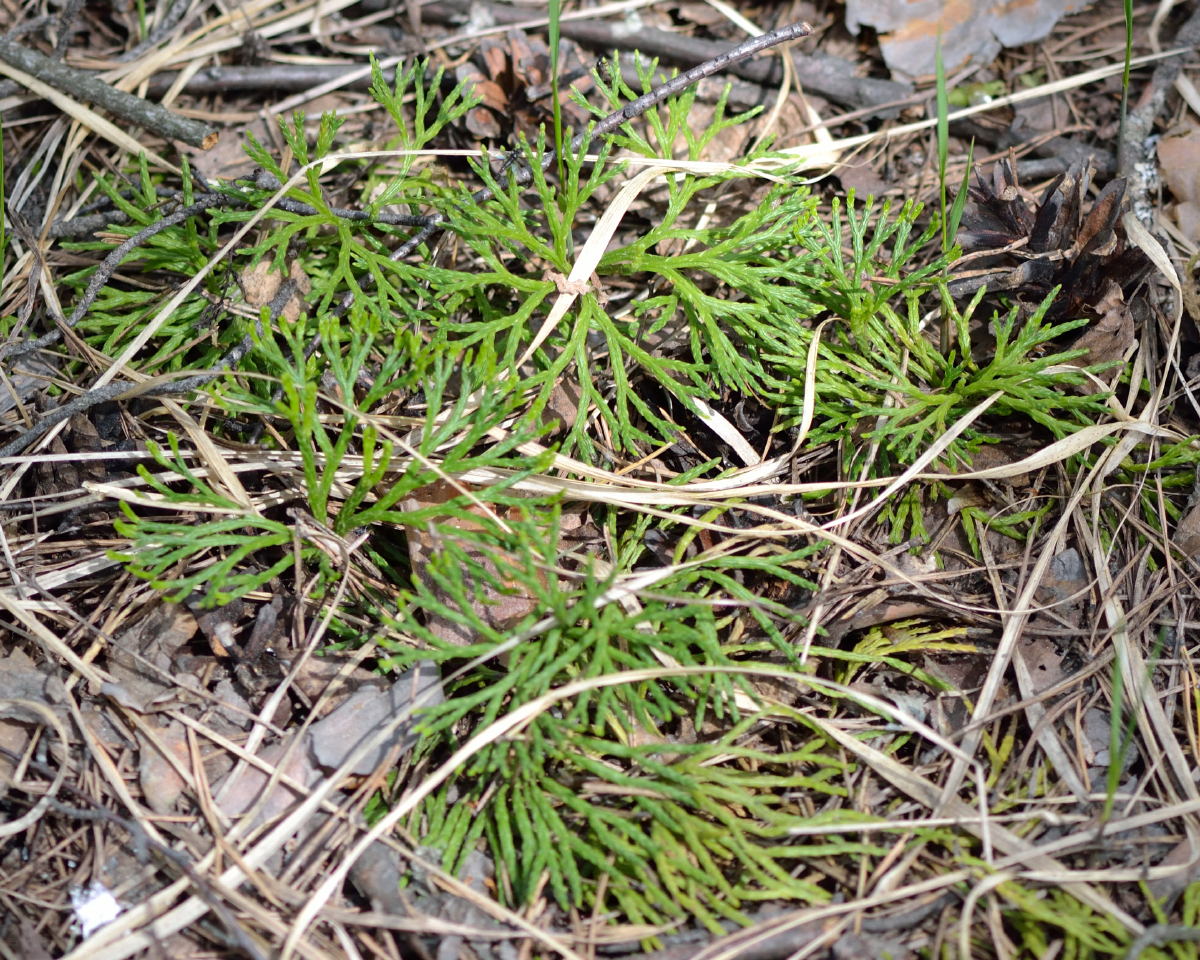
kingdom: Plantae
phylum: Tracheophyta
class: Lycopodiopsida
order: Lycopodiales
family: Lycopodiaceae
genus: Diphasiastrum
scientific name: Diphasiastrum complanatum
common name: Northern running-pine
